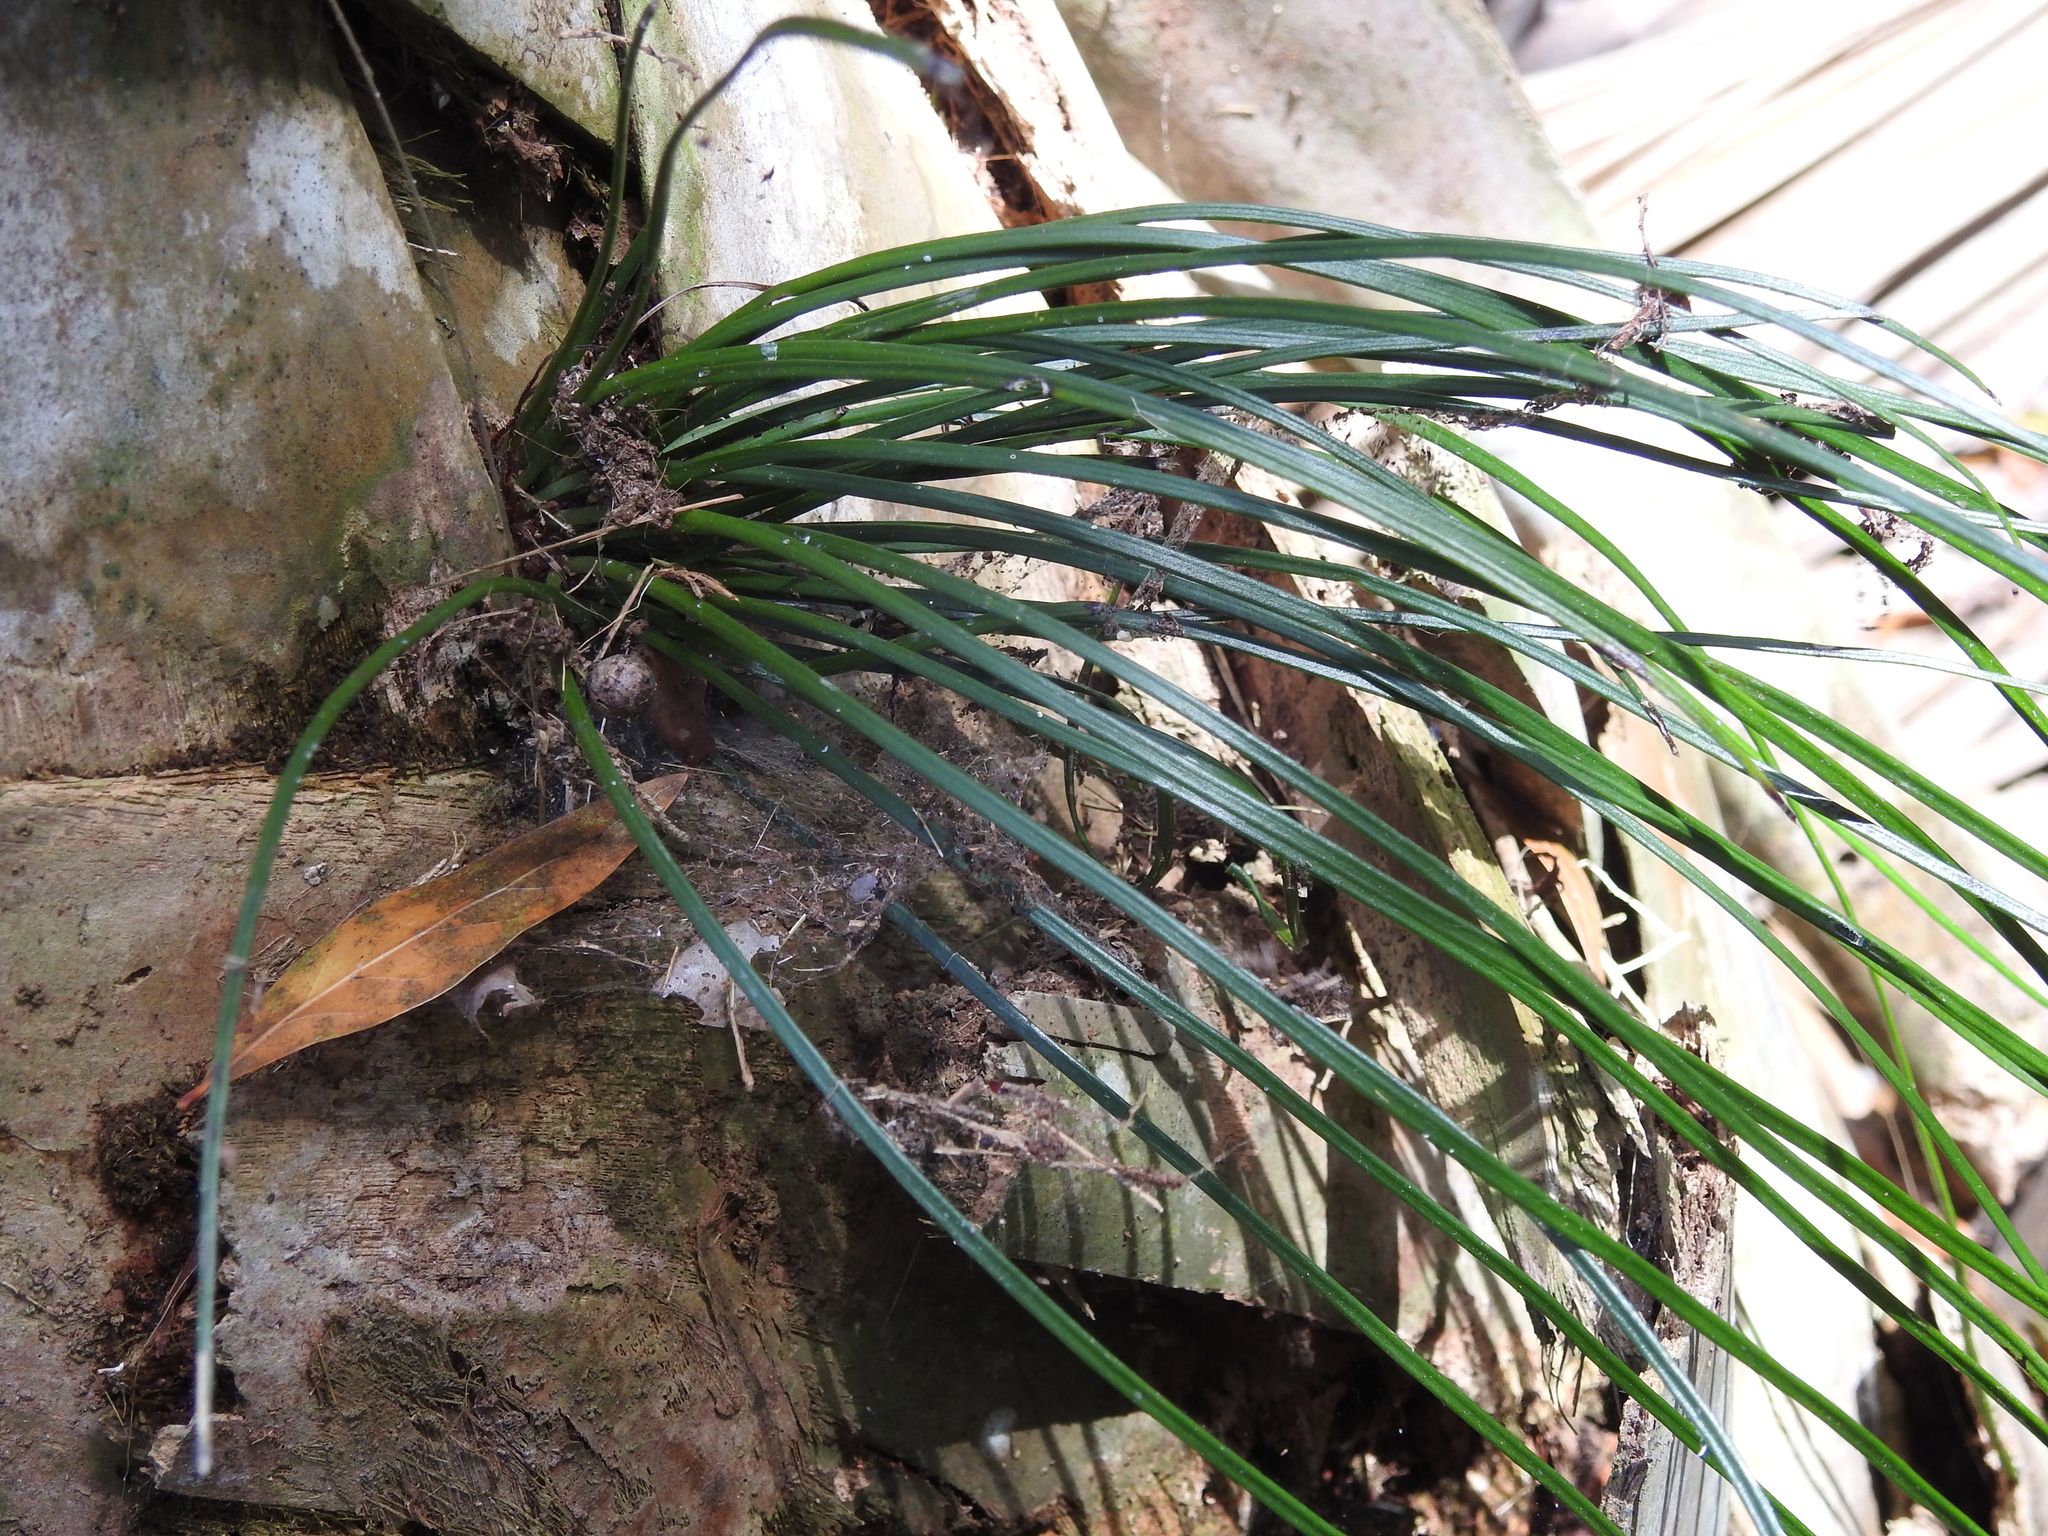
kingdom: Plantae
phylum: Tracheophyta
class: Polypodiopsida
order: Polypodiales
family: Pteridaceae
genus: Vittaria
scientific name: Vittaria lineata
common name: Shoestring fern
